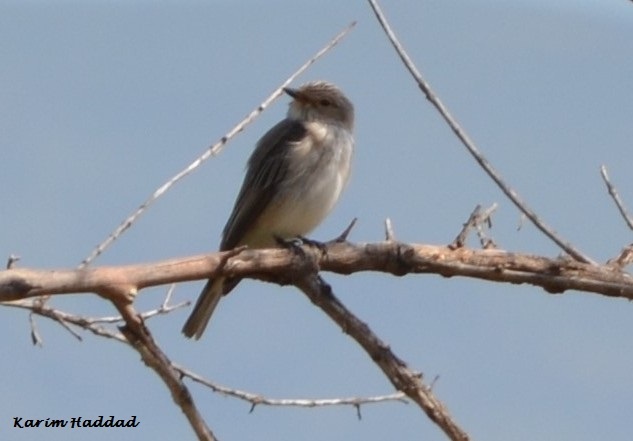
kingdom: Animalia
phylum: Chordata
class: Aves
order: Passeriformes
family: Muscicapidae
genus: Muscicapa
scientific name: Muscicapa striata
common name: Spotted flycatcher
